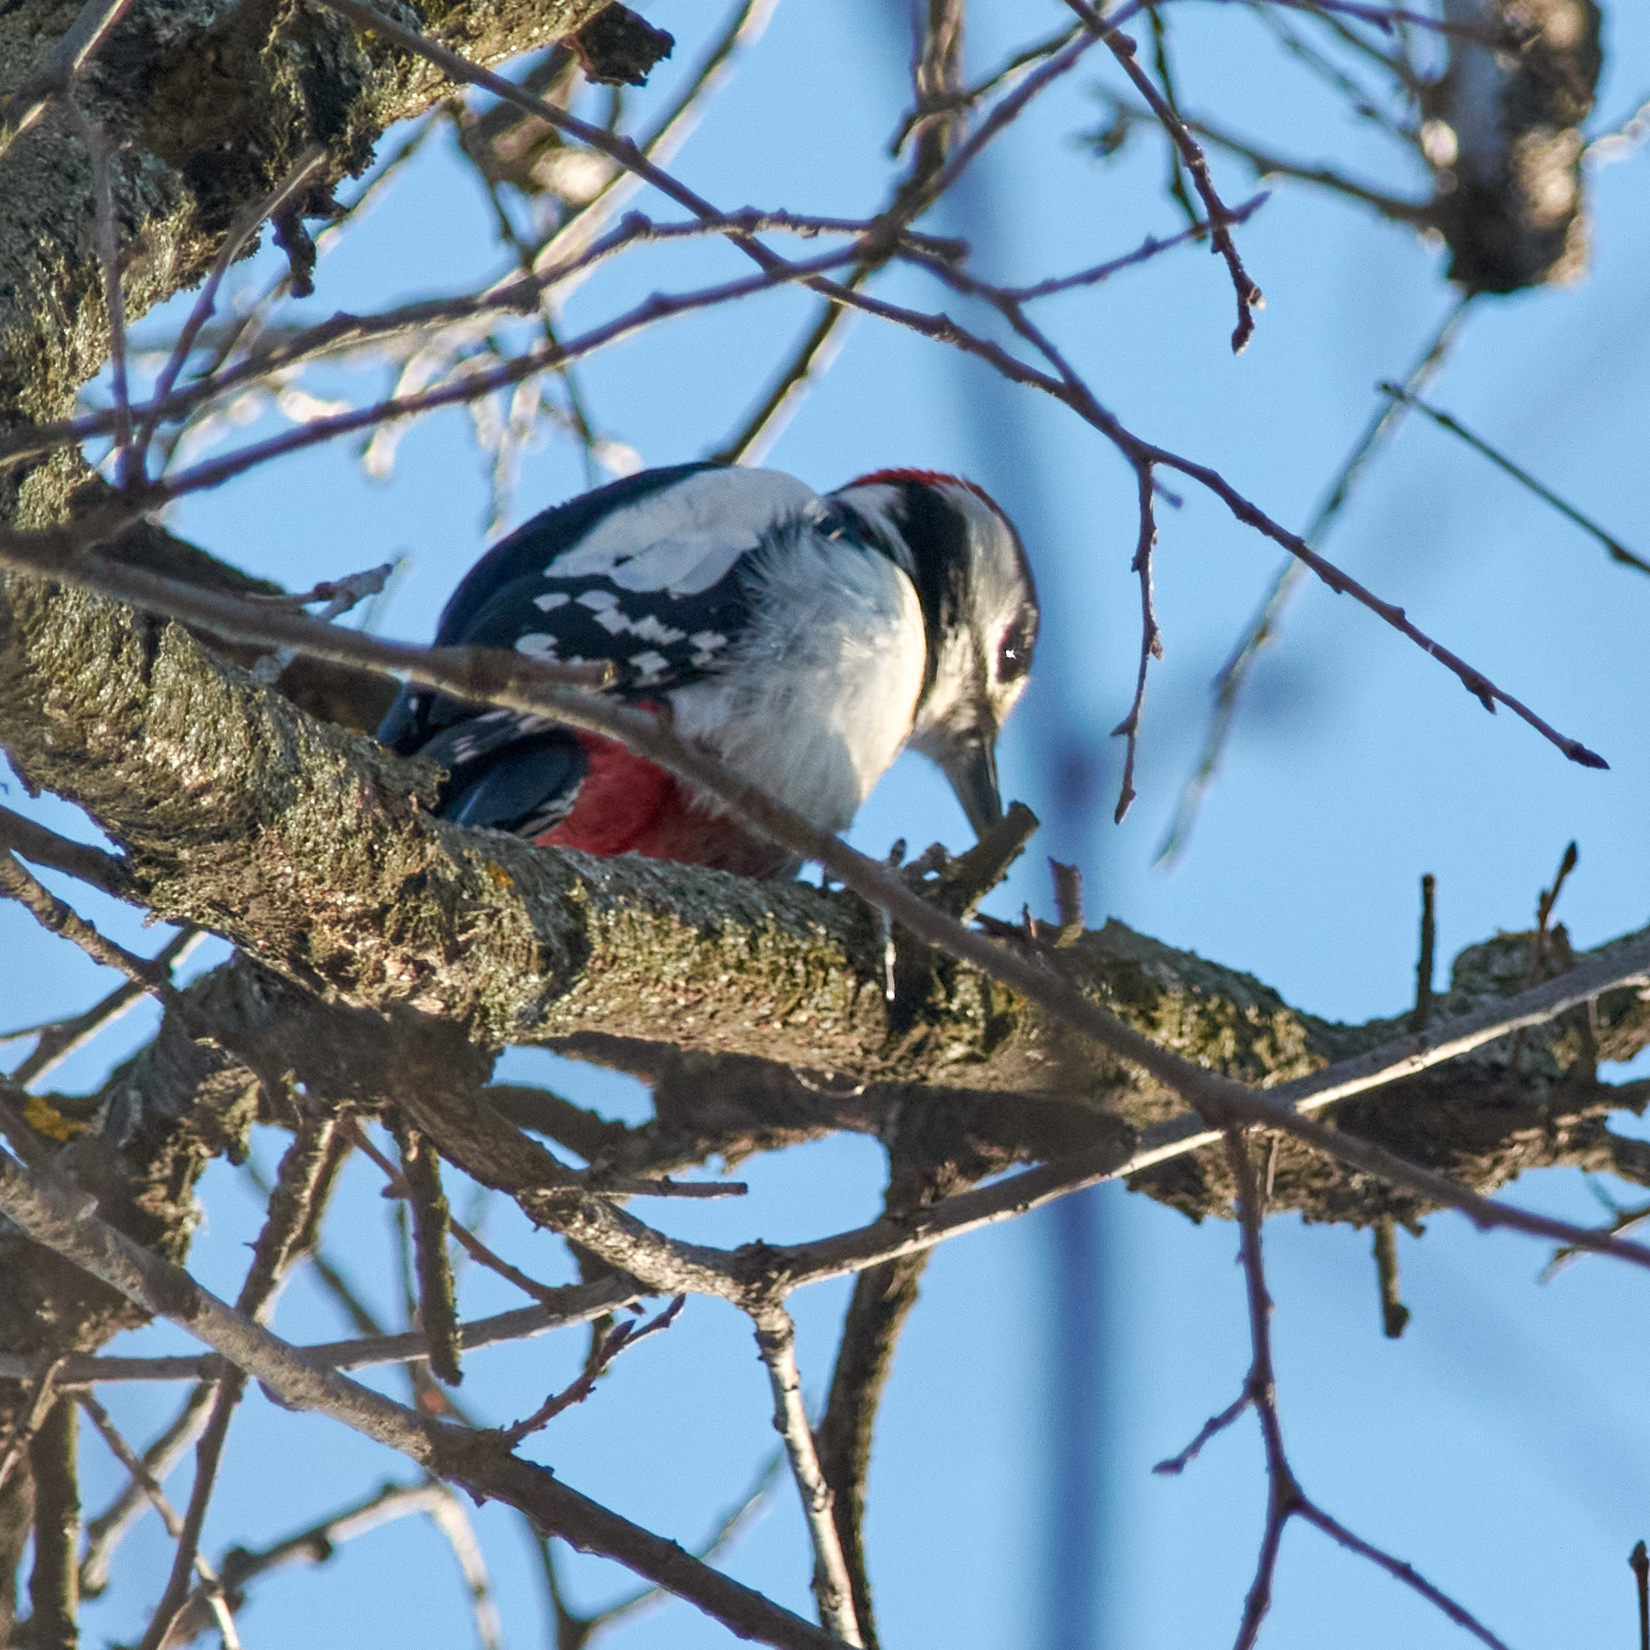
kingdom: Animalia
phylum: Chordata
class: Aves
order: Piciformes
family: Picidae
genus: Dendrocopos
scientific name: Dendrocopos major
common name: Great spotted woodpecker
